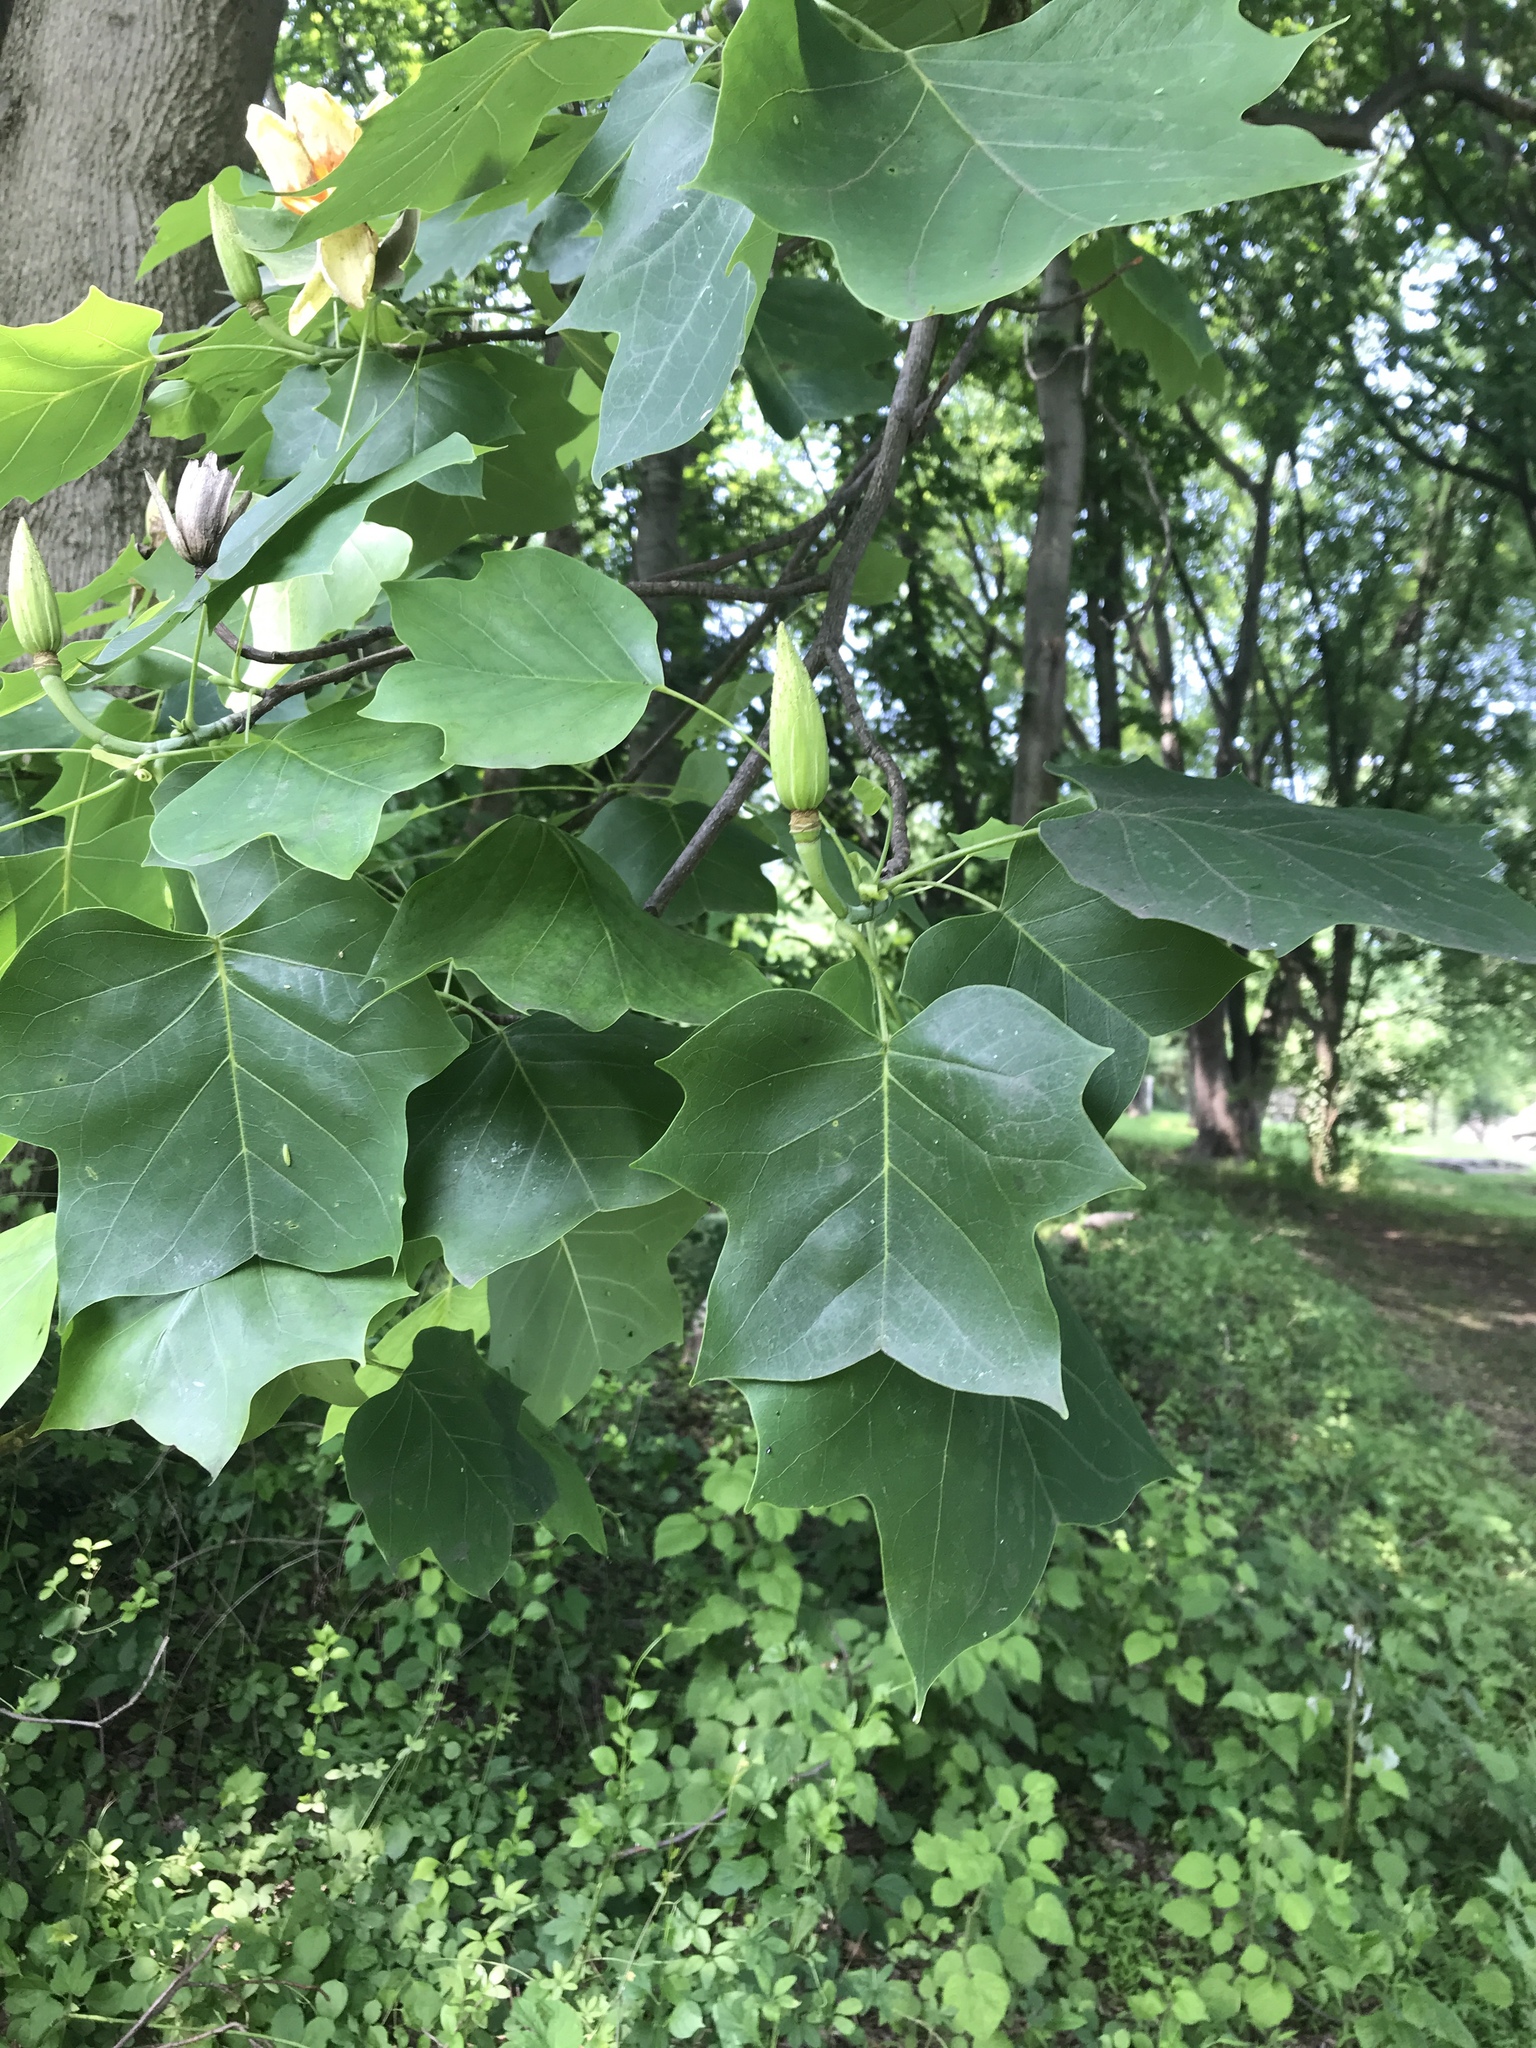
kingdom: Plantae
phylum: Tracheophyta
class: Magnoliopsida
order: Magnoliales
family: Magnoliaceae
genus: Liriodendron
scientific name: Liriodendron tulipifera
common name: Tulip tree
